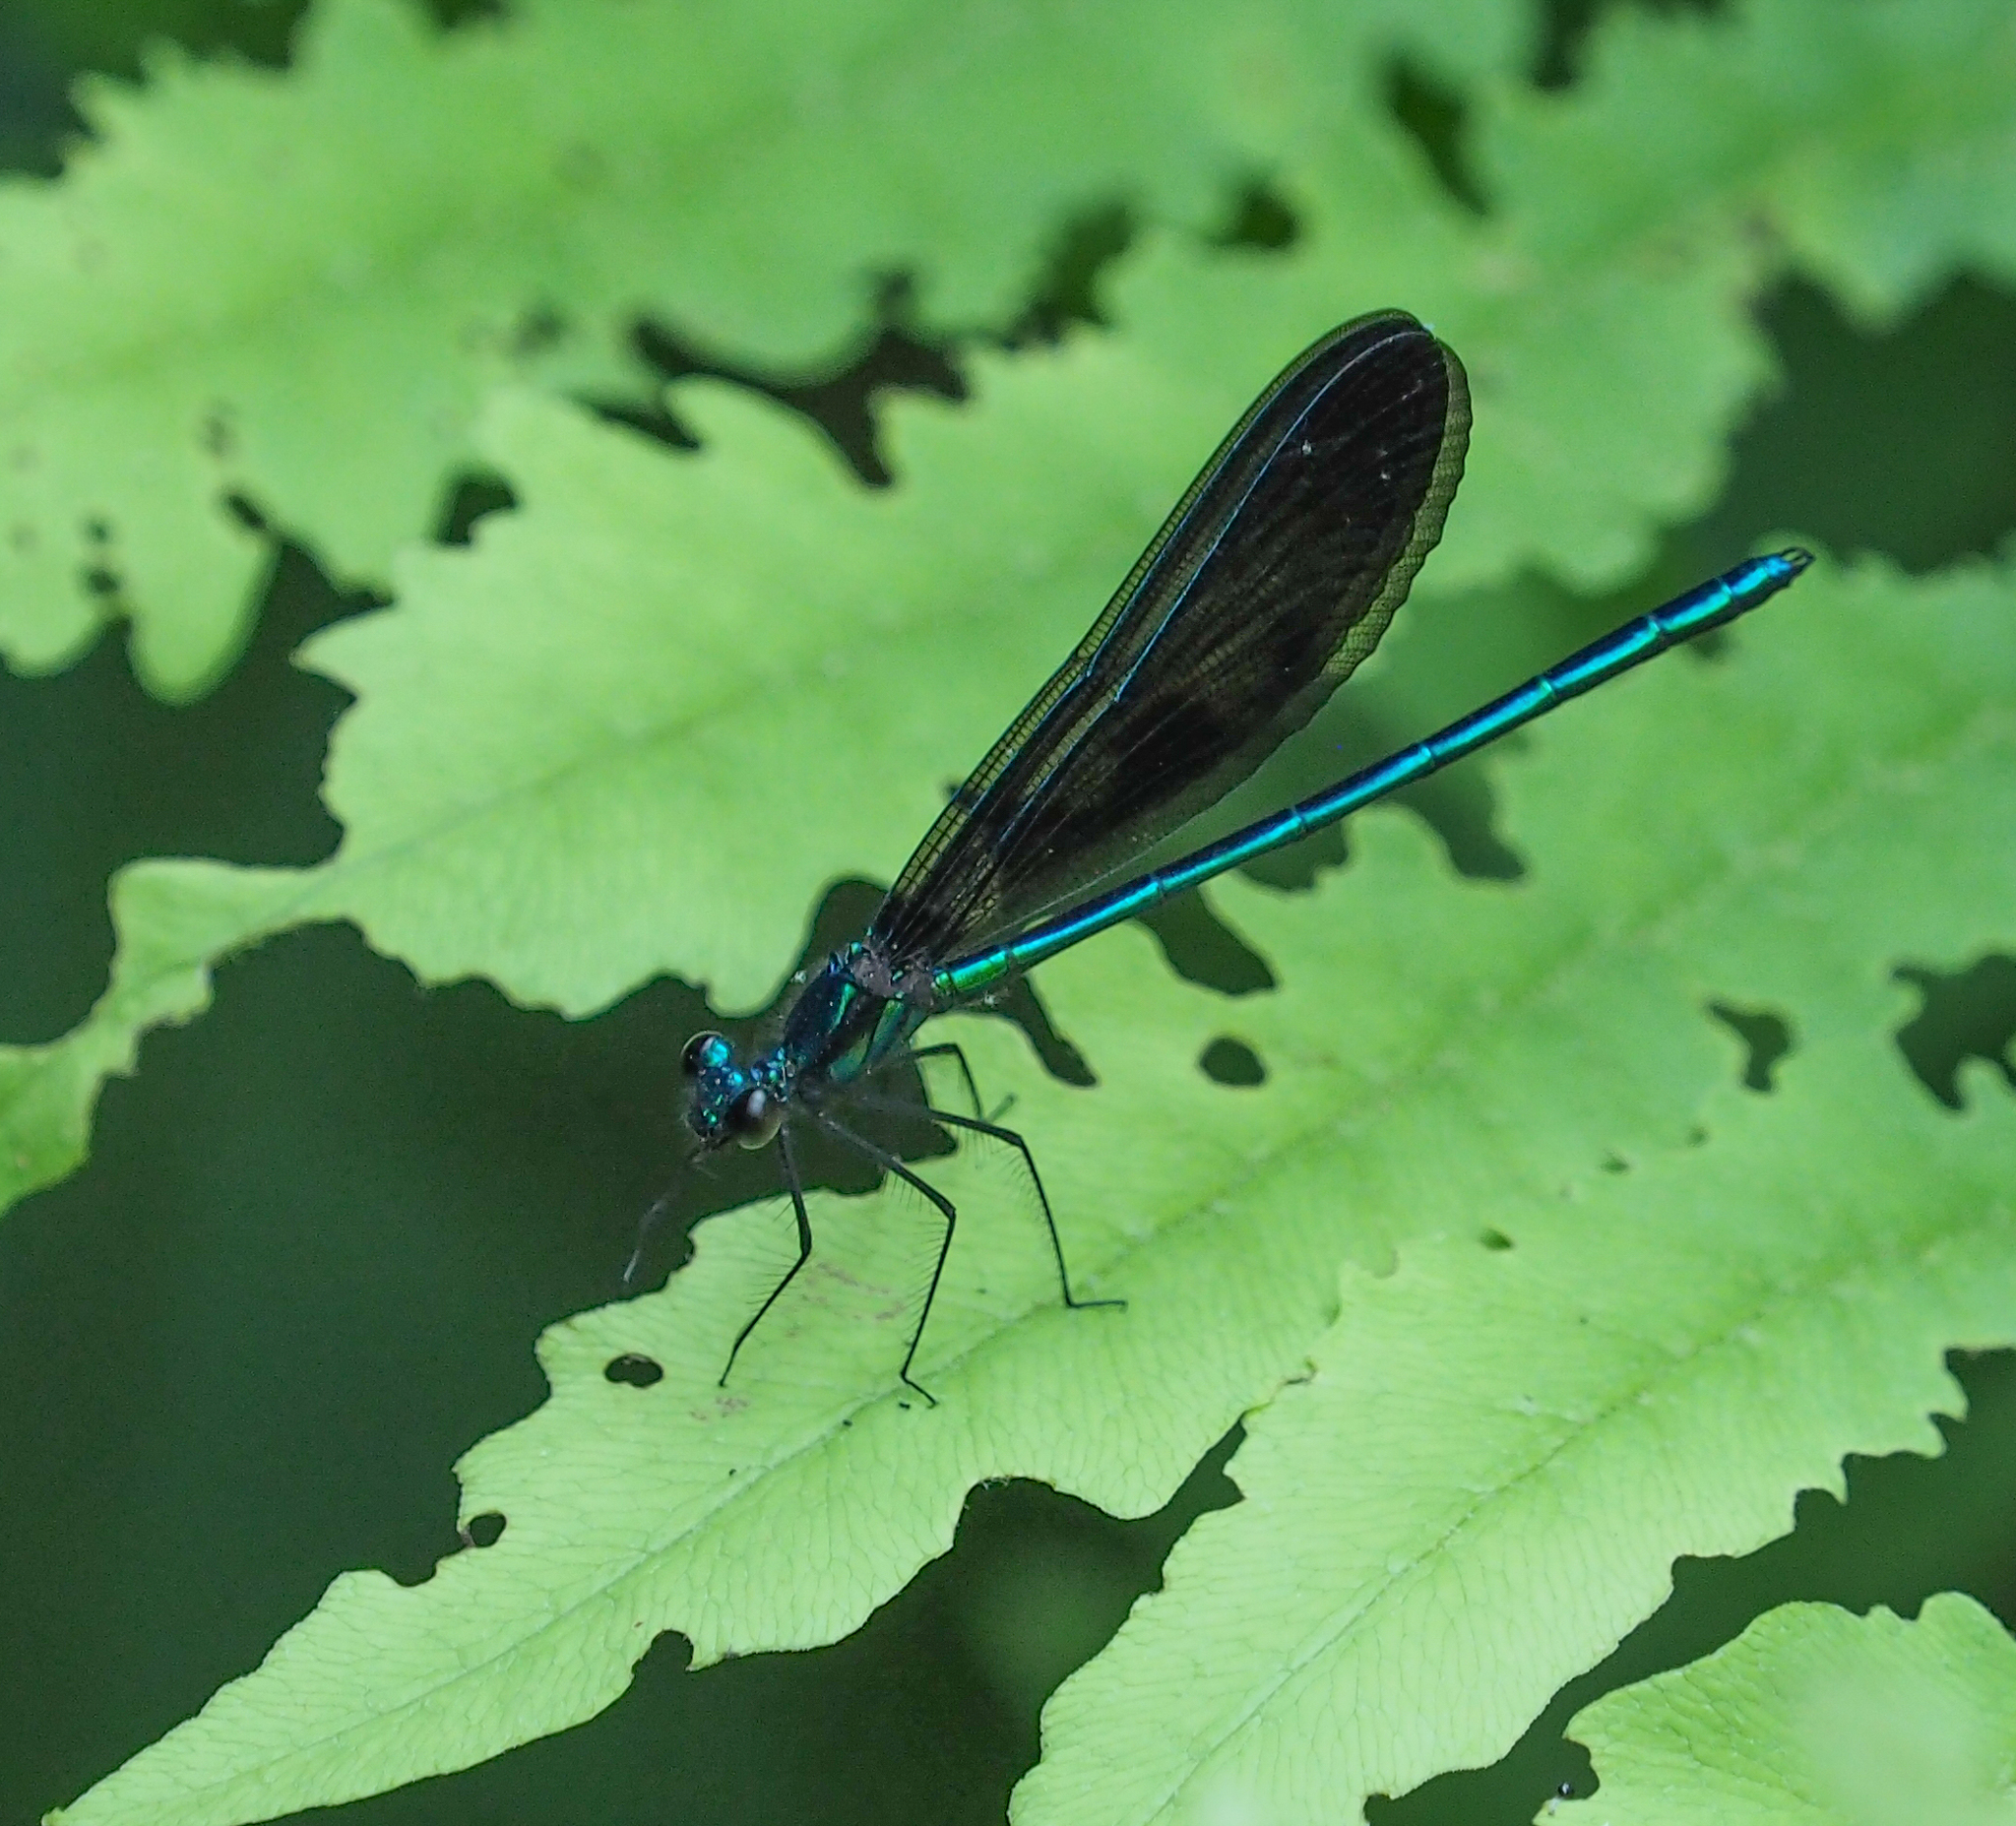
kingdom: Animalia
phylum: Arthropoda
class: Insecta
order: Odonata
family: Calopterygidae
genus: Calopteryx
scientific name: Calopteryx maculata
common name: Ebony jewelwing
